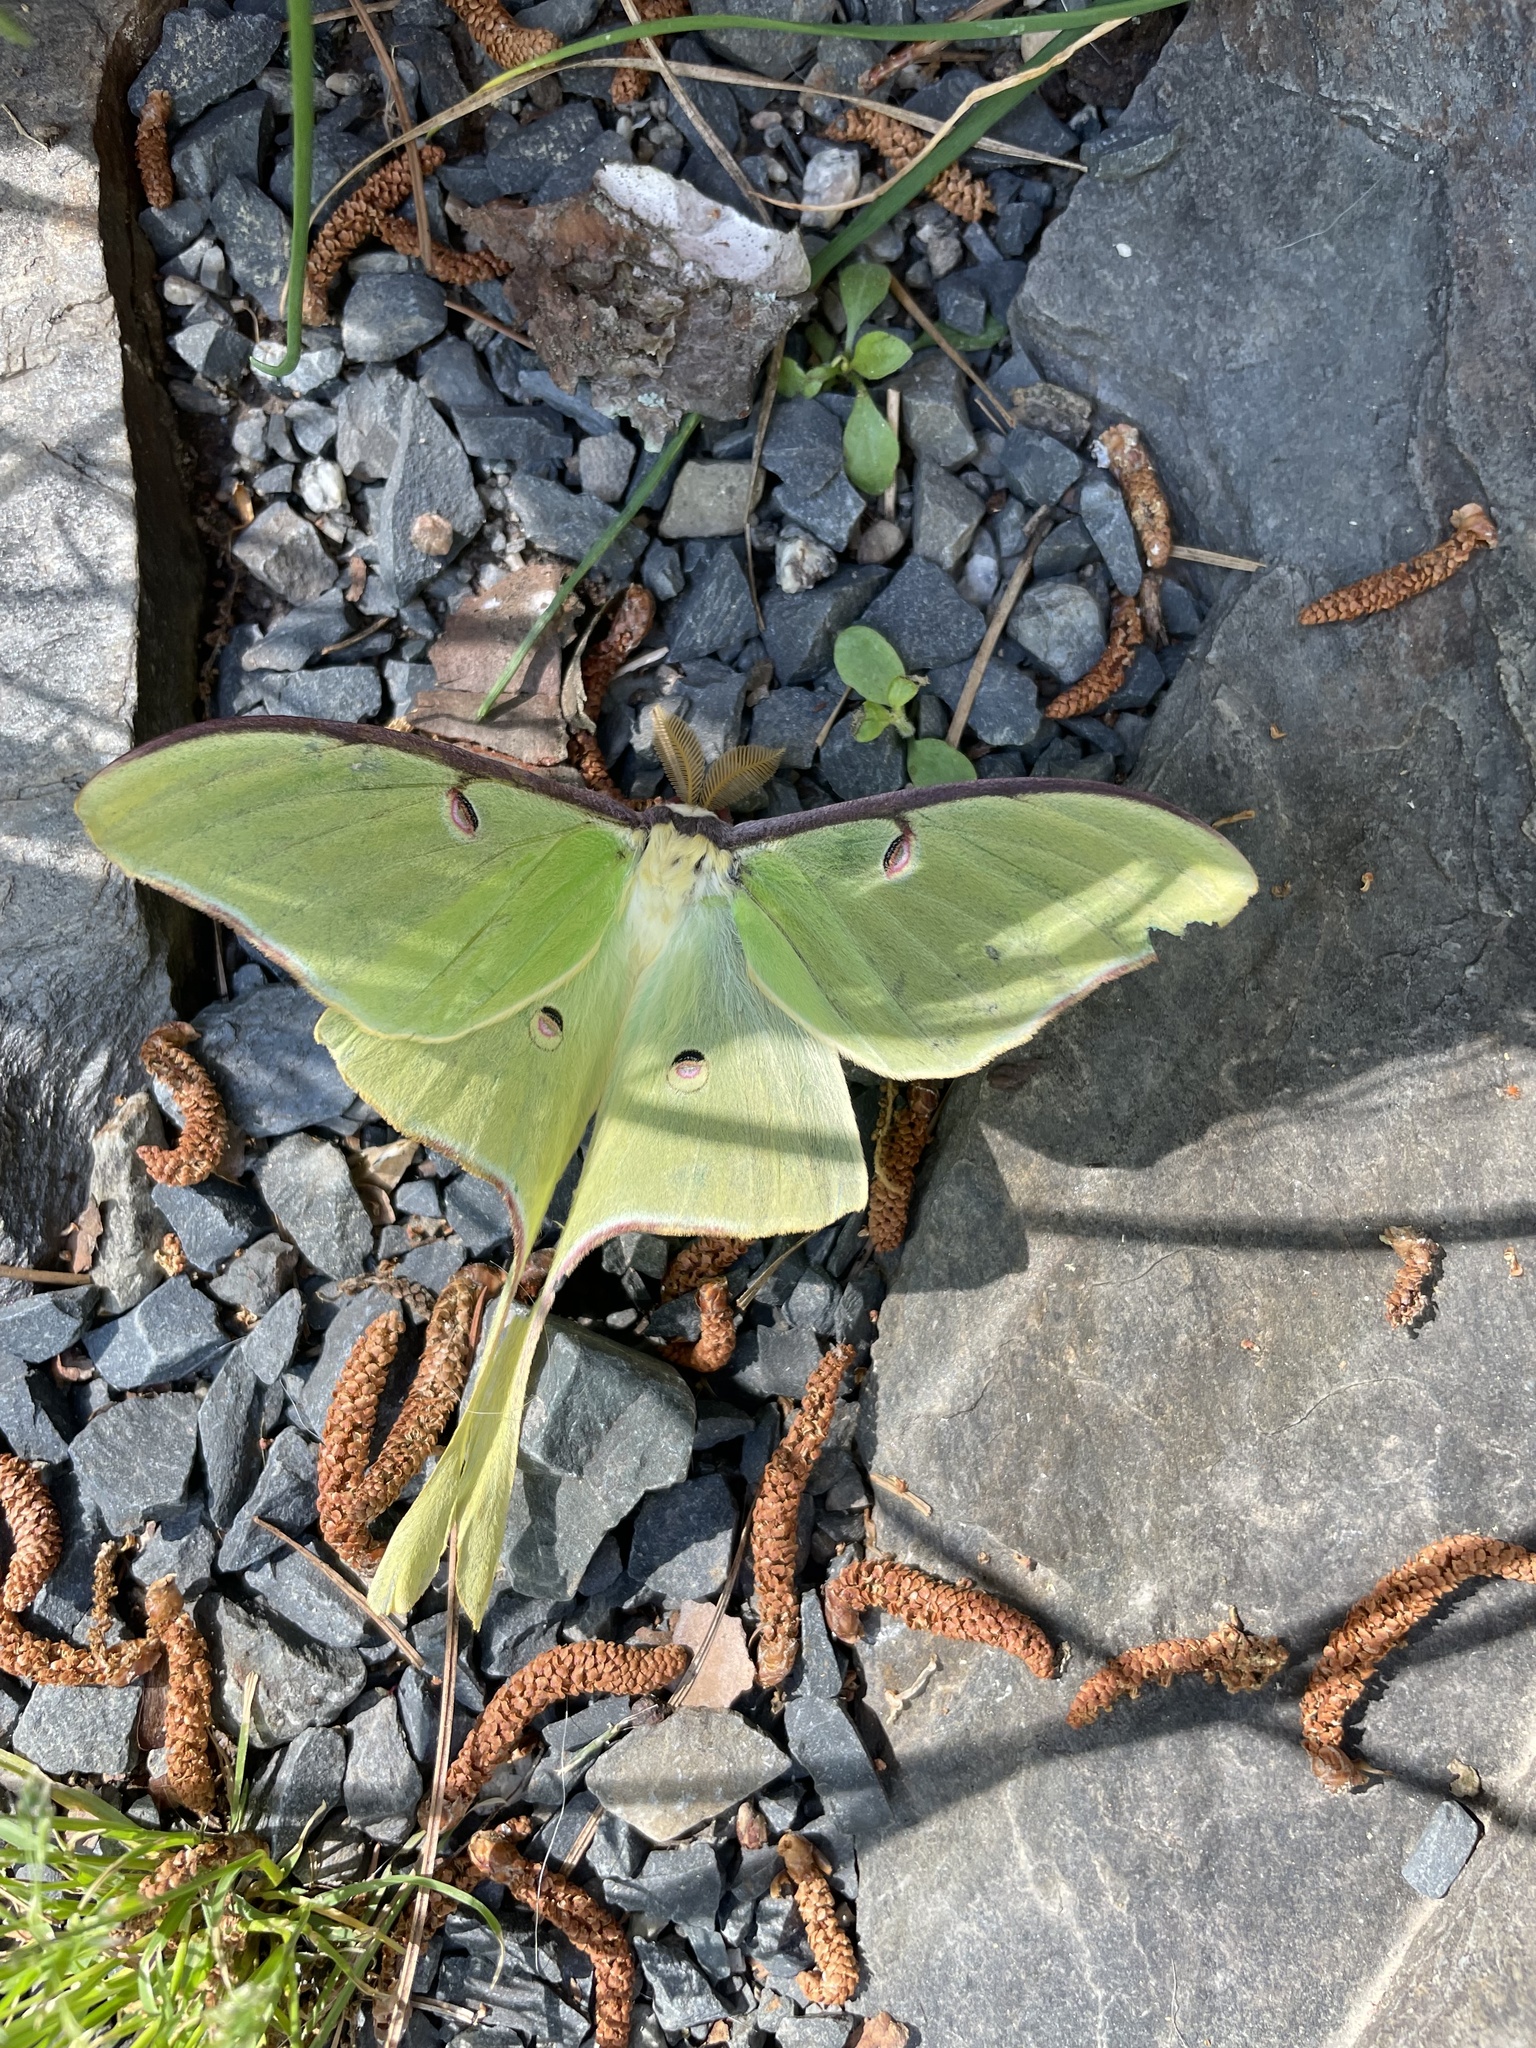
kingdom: Animalia
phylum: Arthropoda
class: Insecta
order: Lepidoptera
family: Saturniidae
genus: Actias
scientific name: Actias luna
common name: Luna moth
